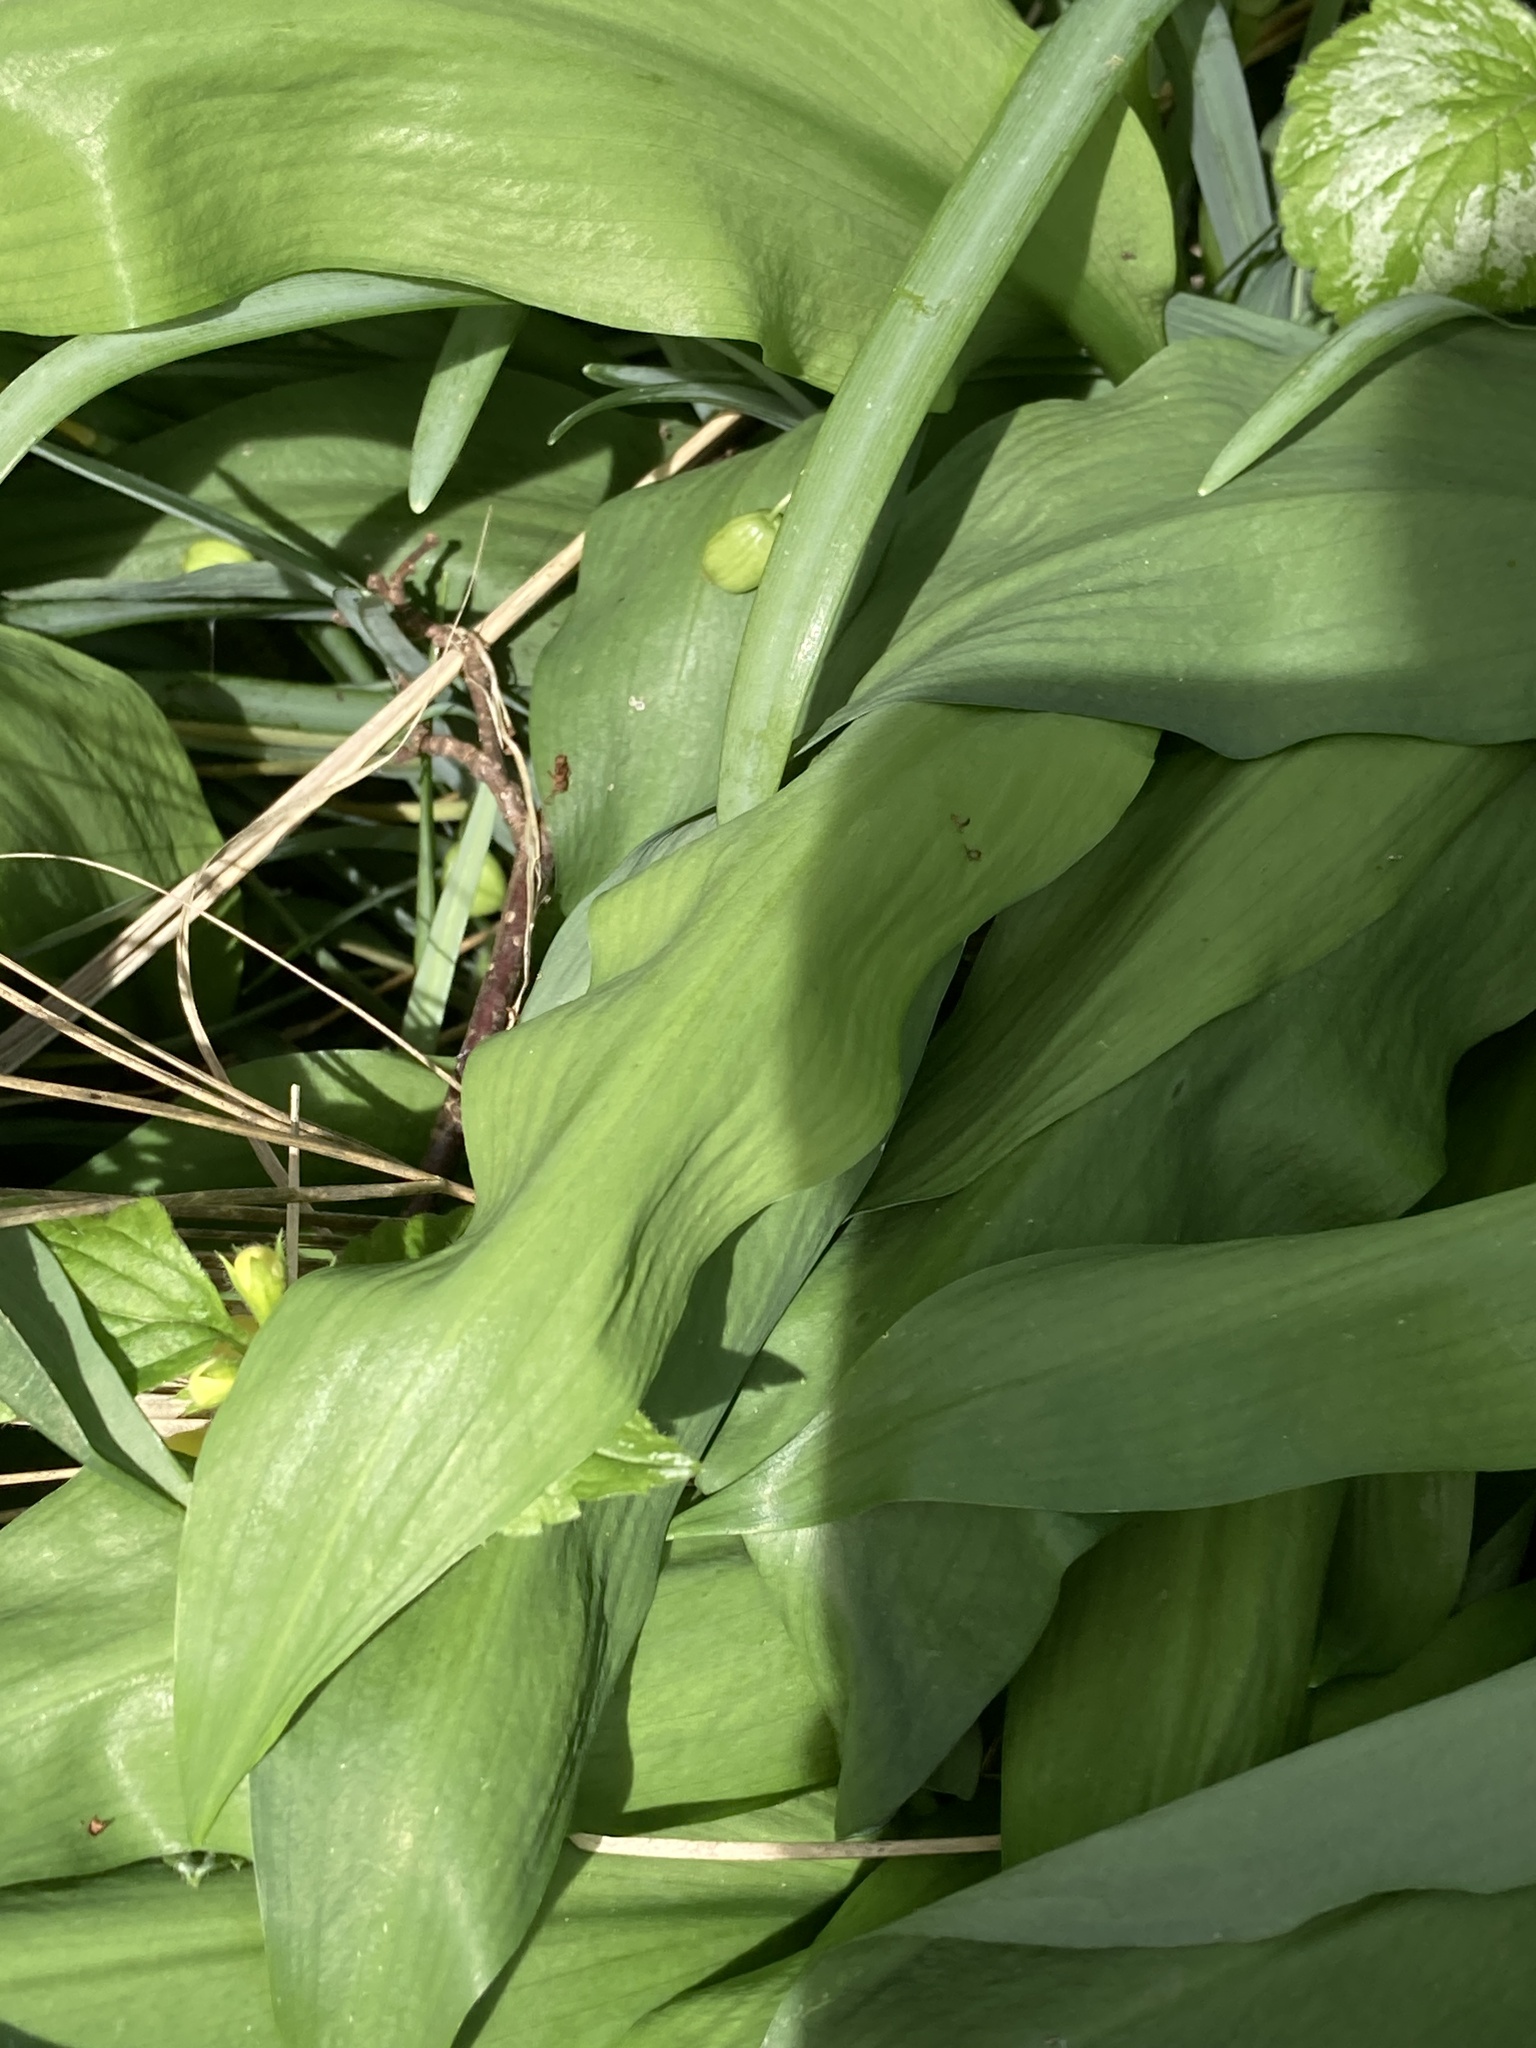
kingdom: Plantae
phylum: Tracheophyta
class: Liliopsida
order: Asparagales
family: Amaryllidaceae
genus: Allium
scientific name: Allium ursinum
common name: Ramsons
